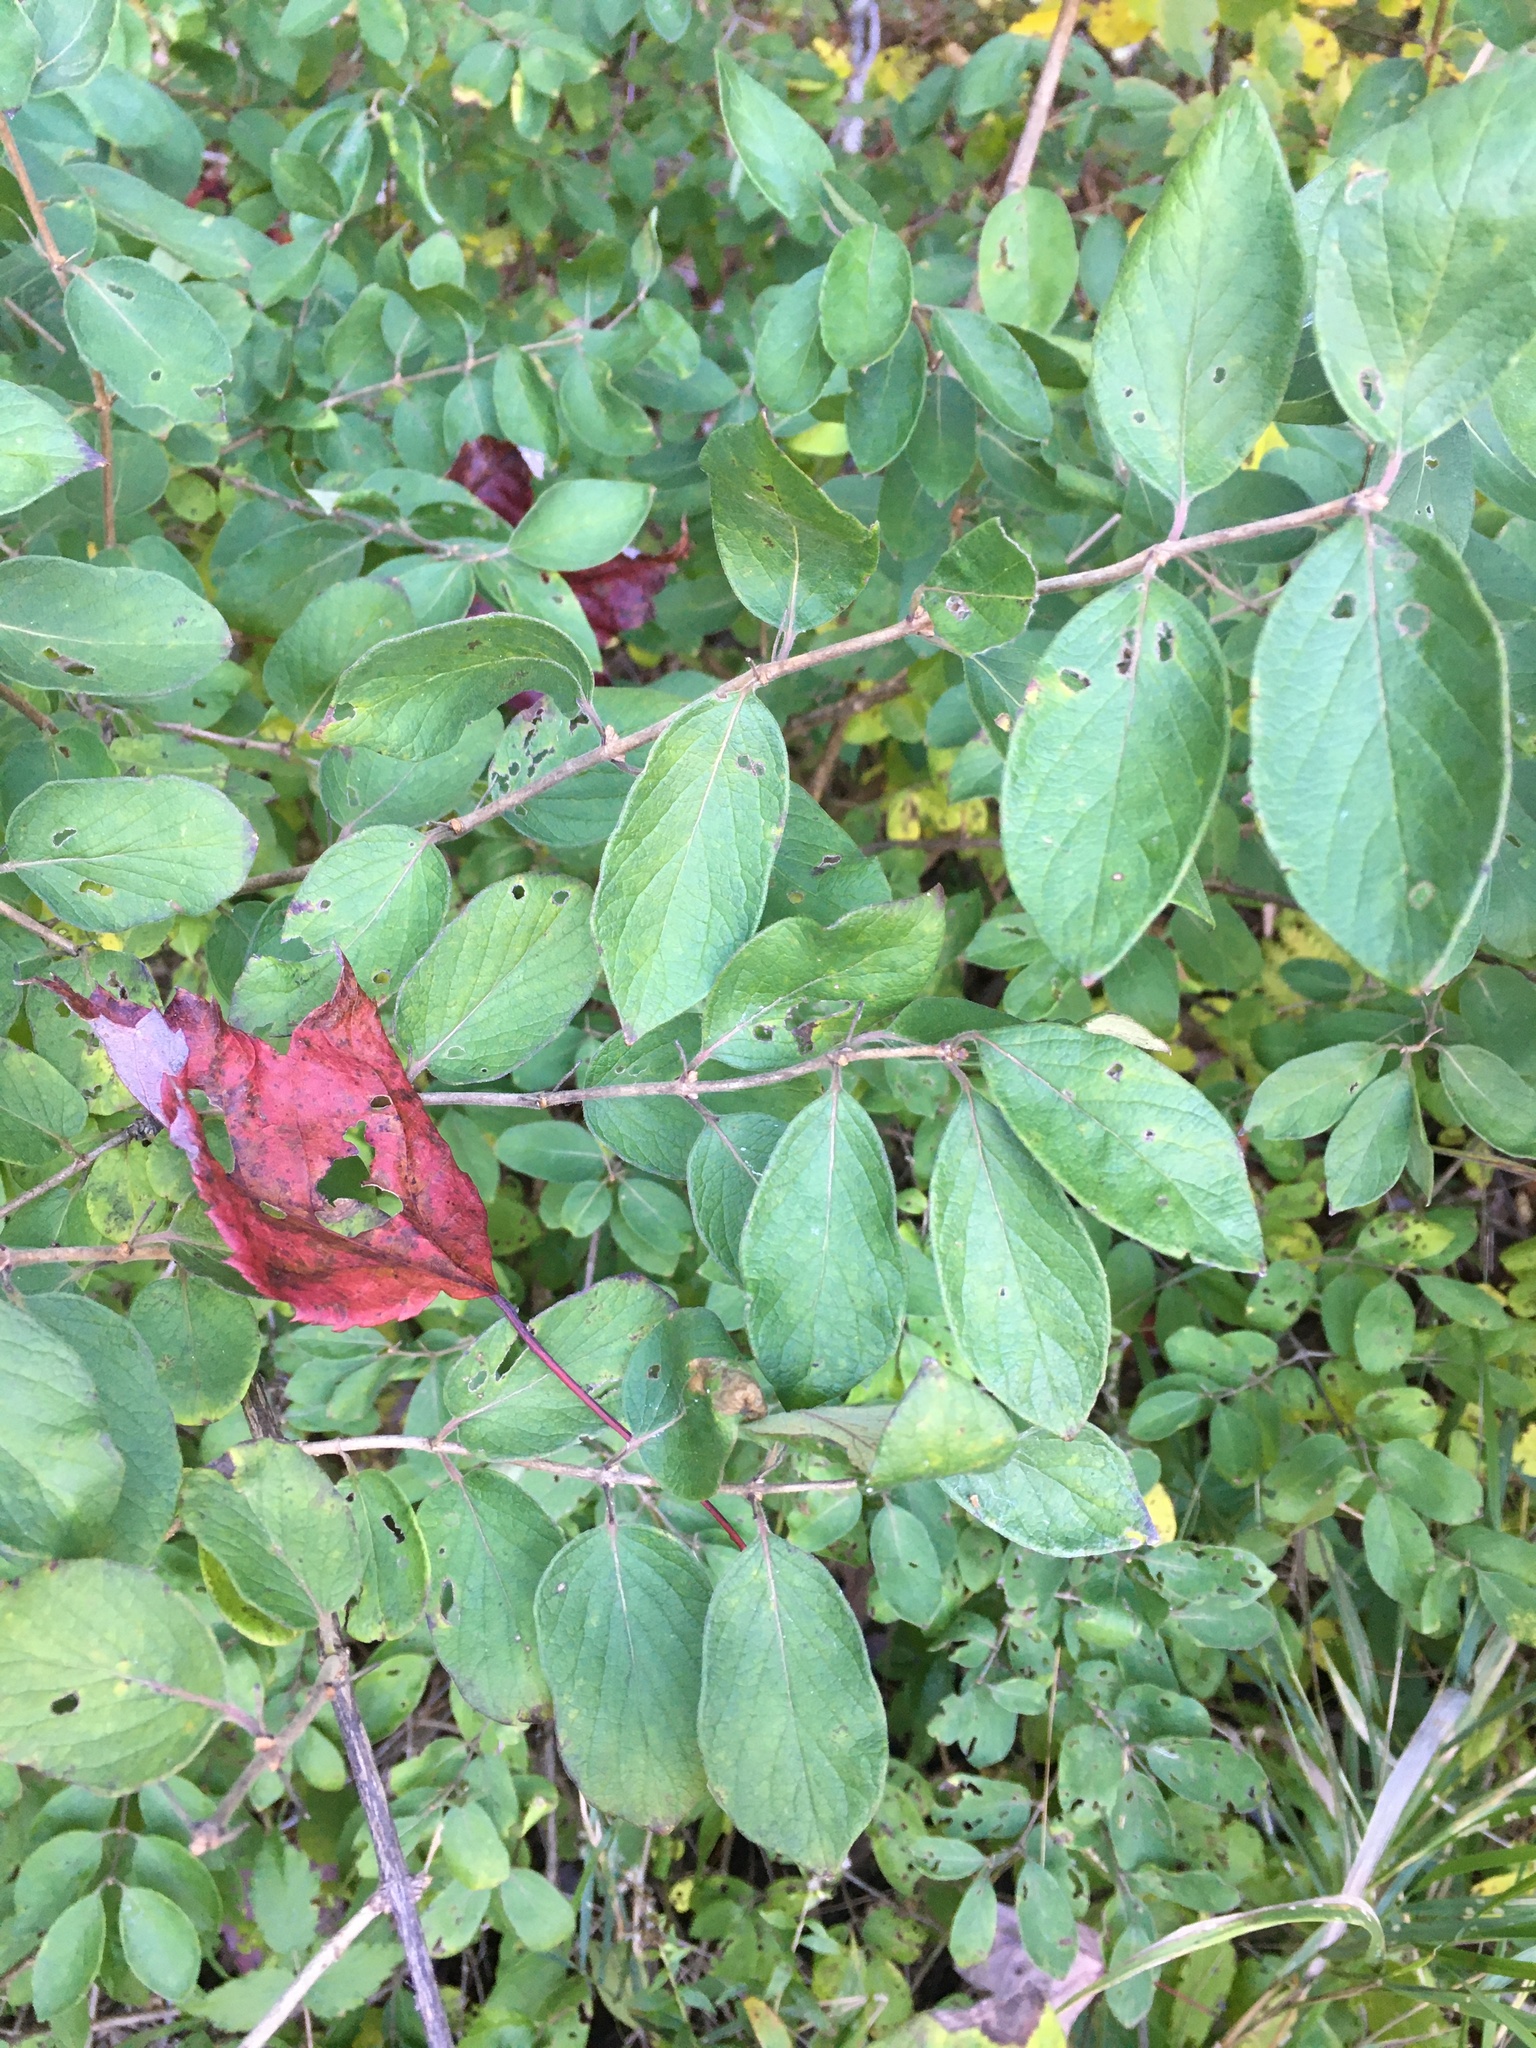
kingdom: Plantae
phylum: Tracheophyta
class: Magnoliopsida
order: Dipsacales
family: Caprifoliaceae
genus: Lonicera
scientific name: Lonicera morrowii
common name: Morrow's honeysuckle
